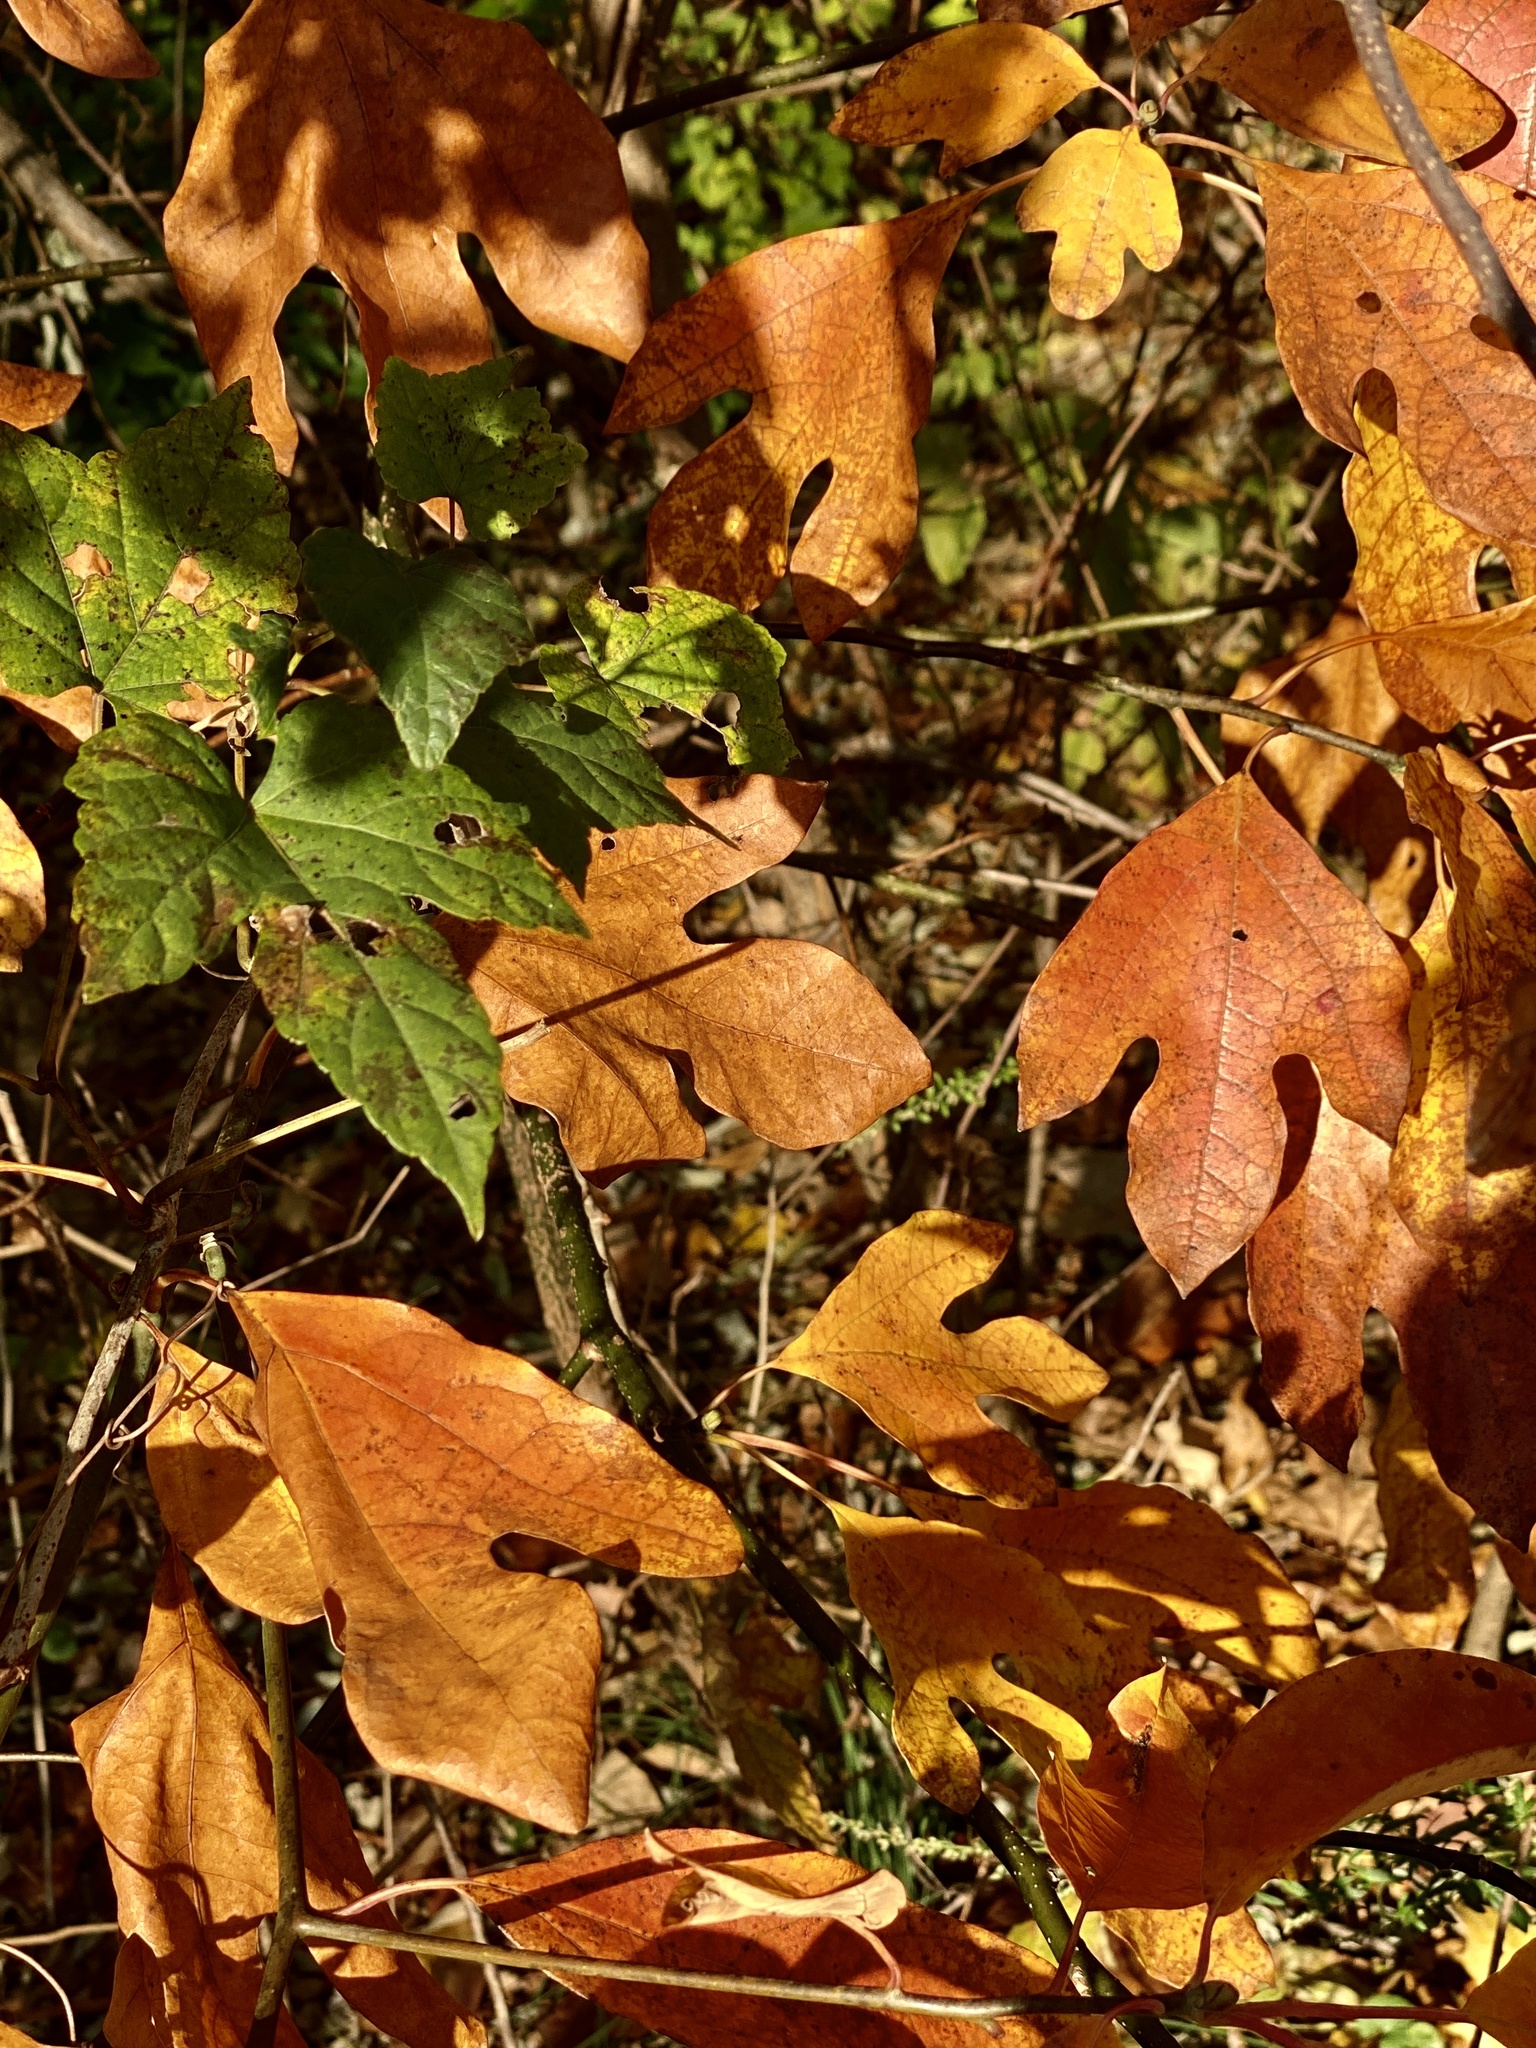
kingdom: Plantae
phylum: Tracheophyta
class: Magnoliopsida
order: Laurales
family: Lauraceae
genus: Sassafras
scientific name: Sassafras albidum
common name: Sassafras
